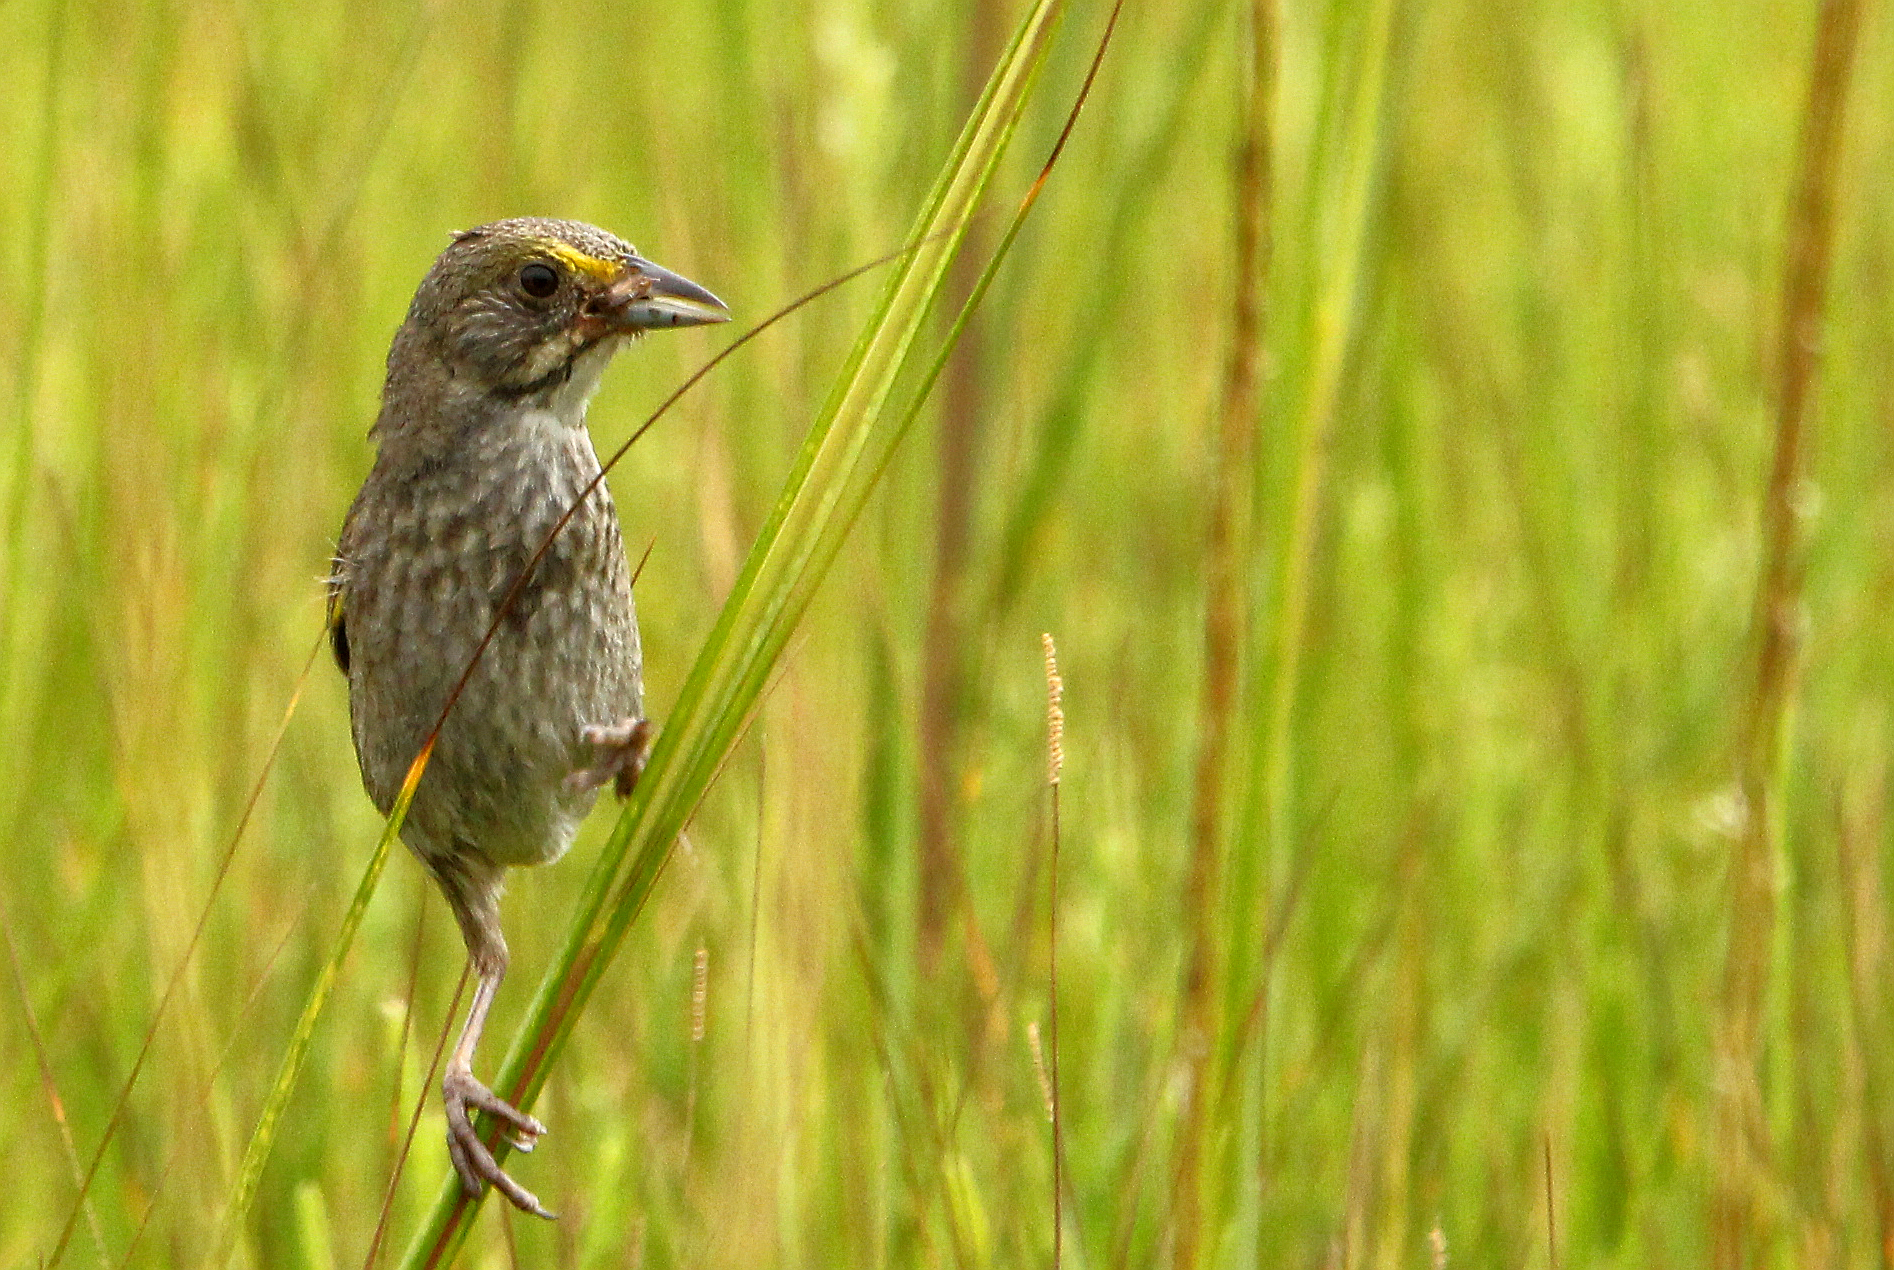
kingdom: Animalia
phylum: Chordata
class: Aves
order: Passeriformes
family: Passerellidae
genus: Ammospiza
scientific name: Ammospiza maritima
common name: Seaside sparrow
